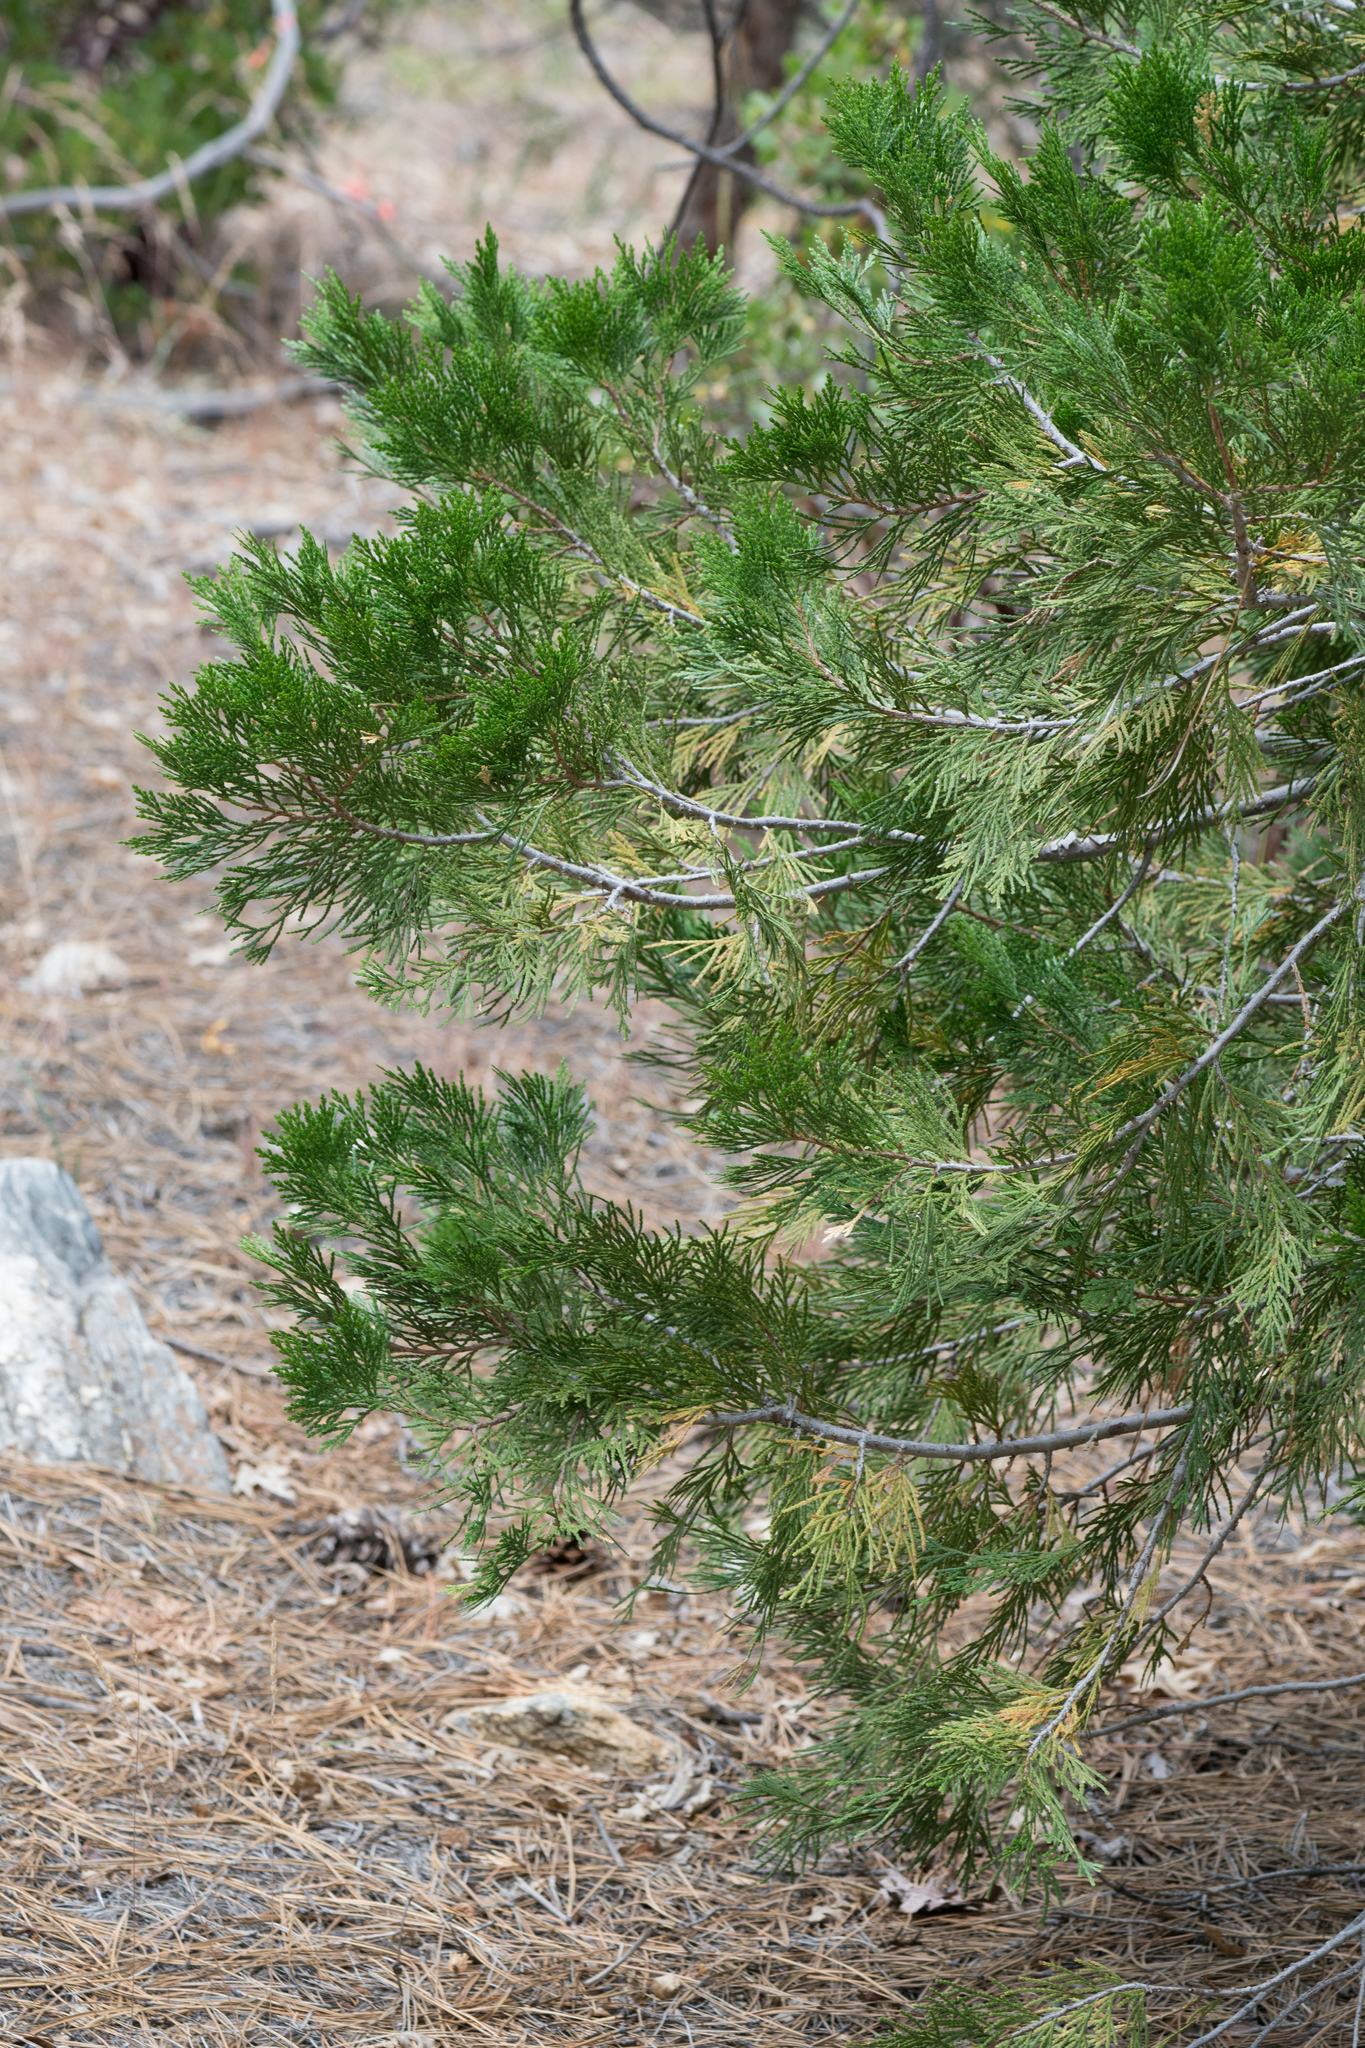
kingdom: Plantae
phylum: Tracheophyta
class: Pinopsida
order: Pinales
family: Cupressaceae
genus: Calocedrus
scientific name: Calocedrus decurrens
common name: Californian incense-cedar
